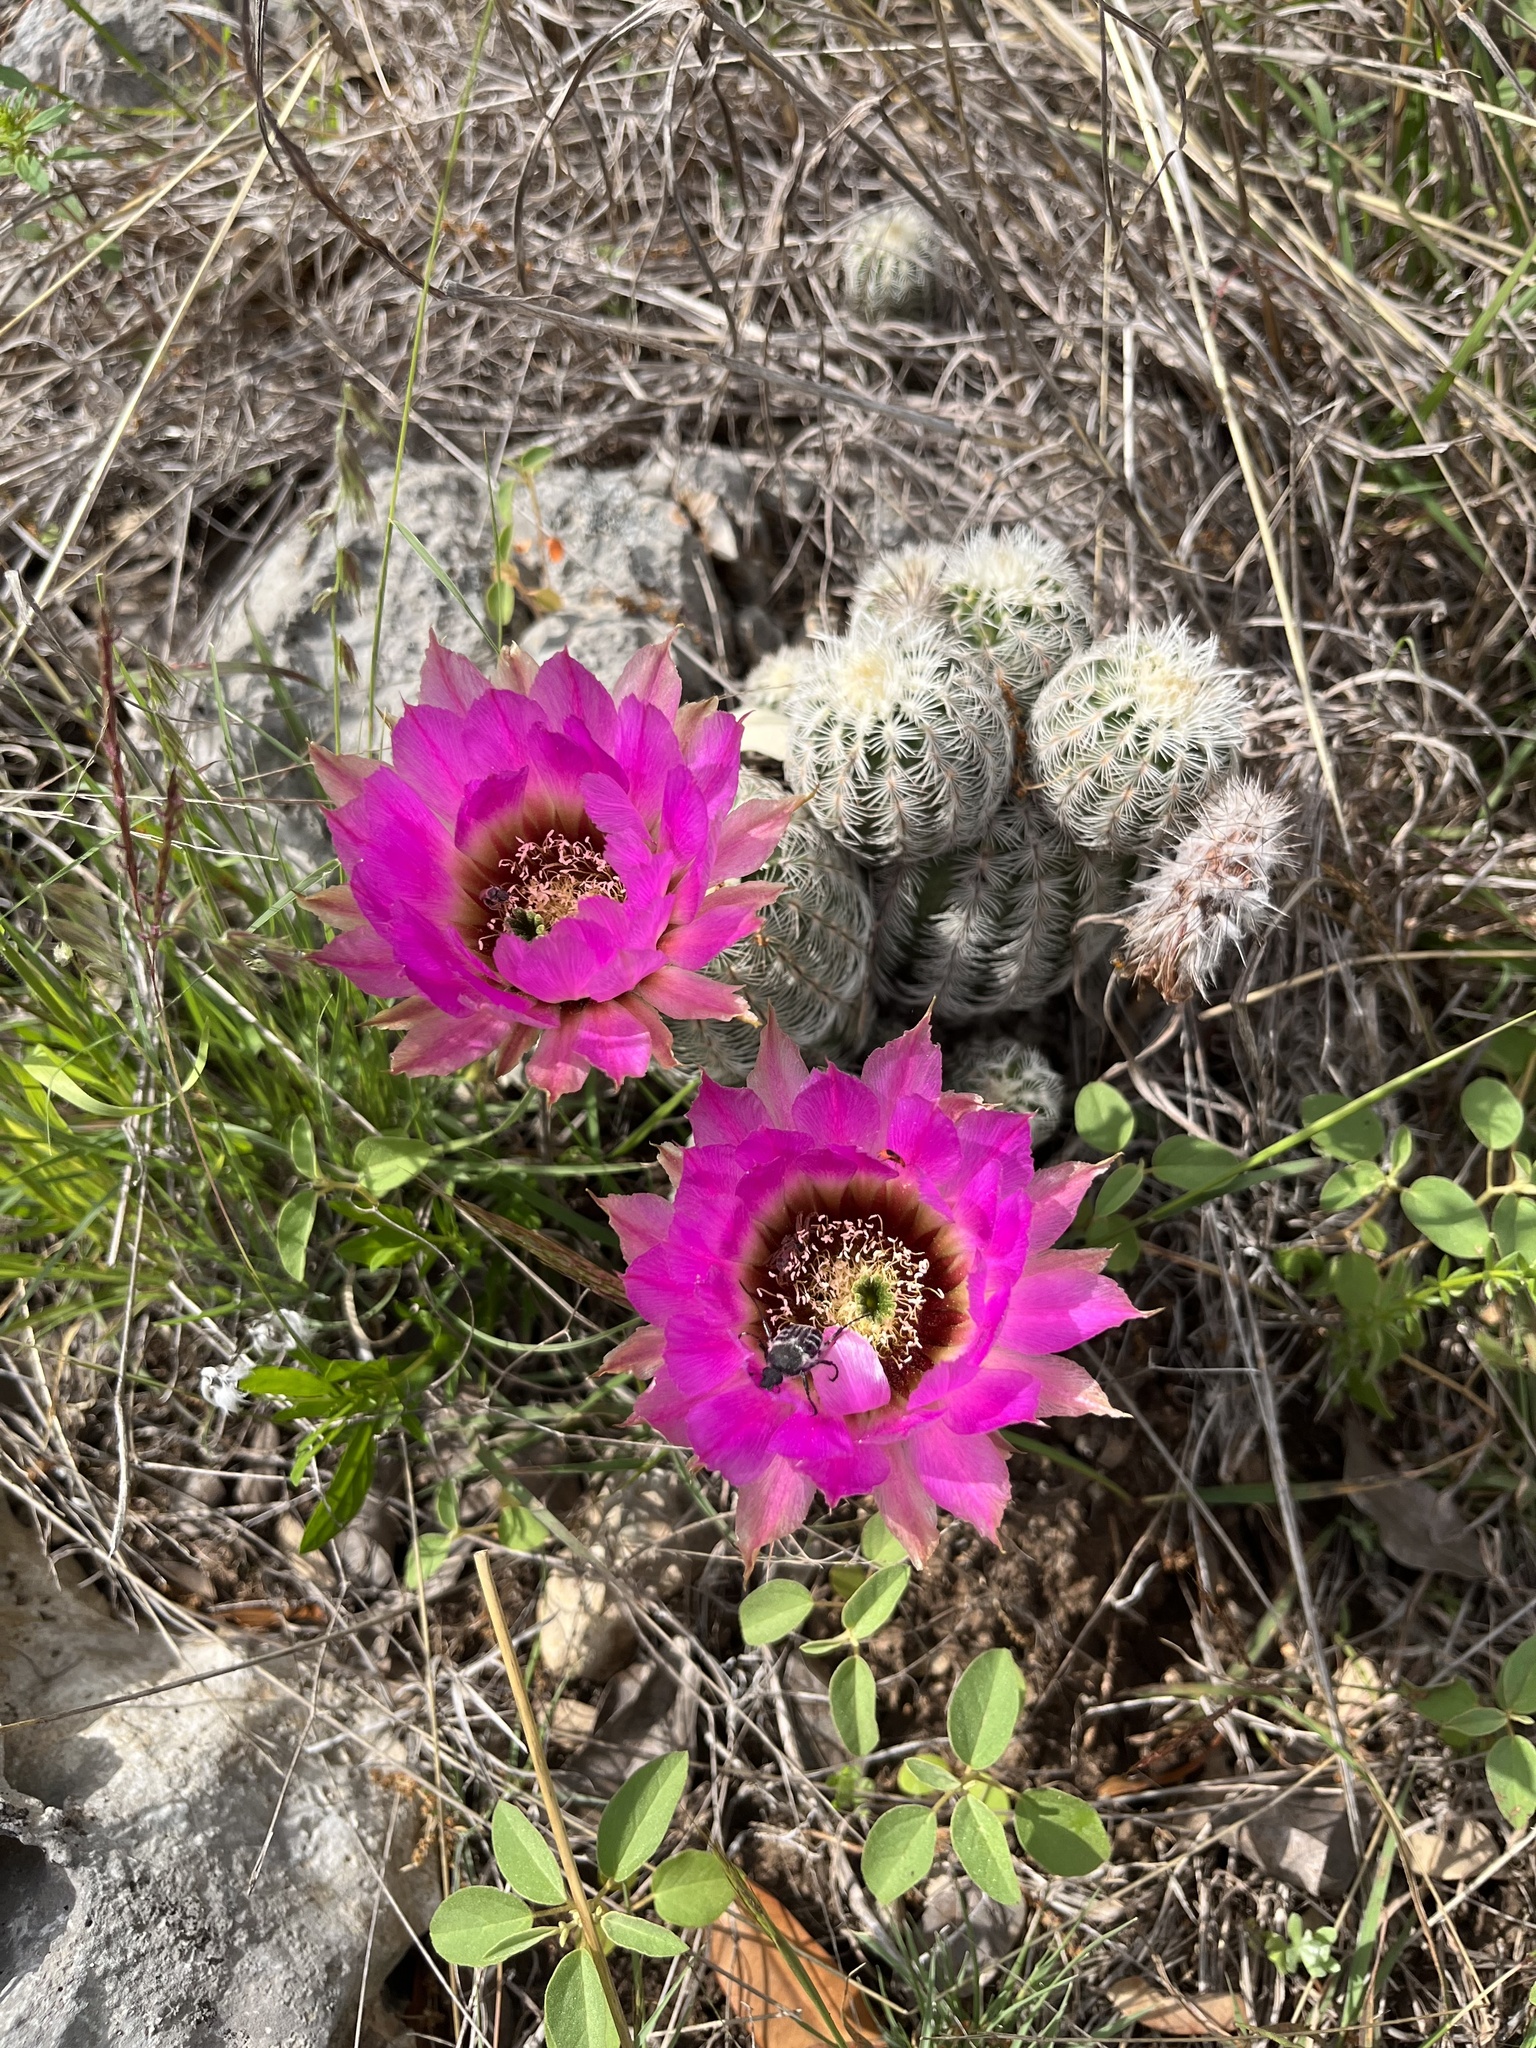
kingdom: Plantae
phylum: Tracheophyta
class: Magnoliopsida
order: Caryophyllales
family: Cactaceae
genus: Echinocereus
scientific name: Echinocereus reichenbachii
